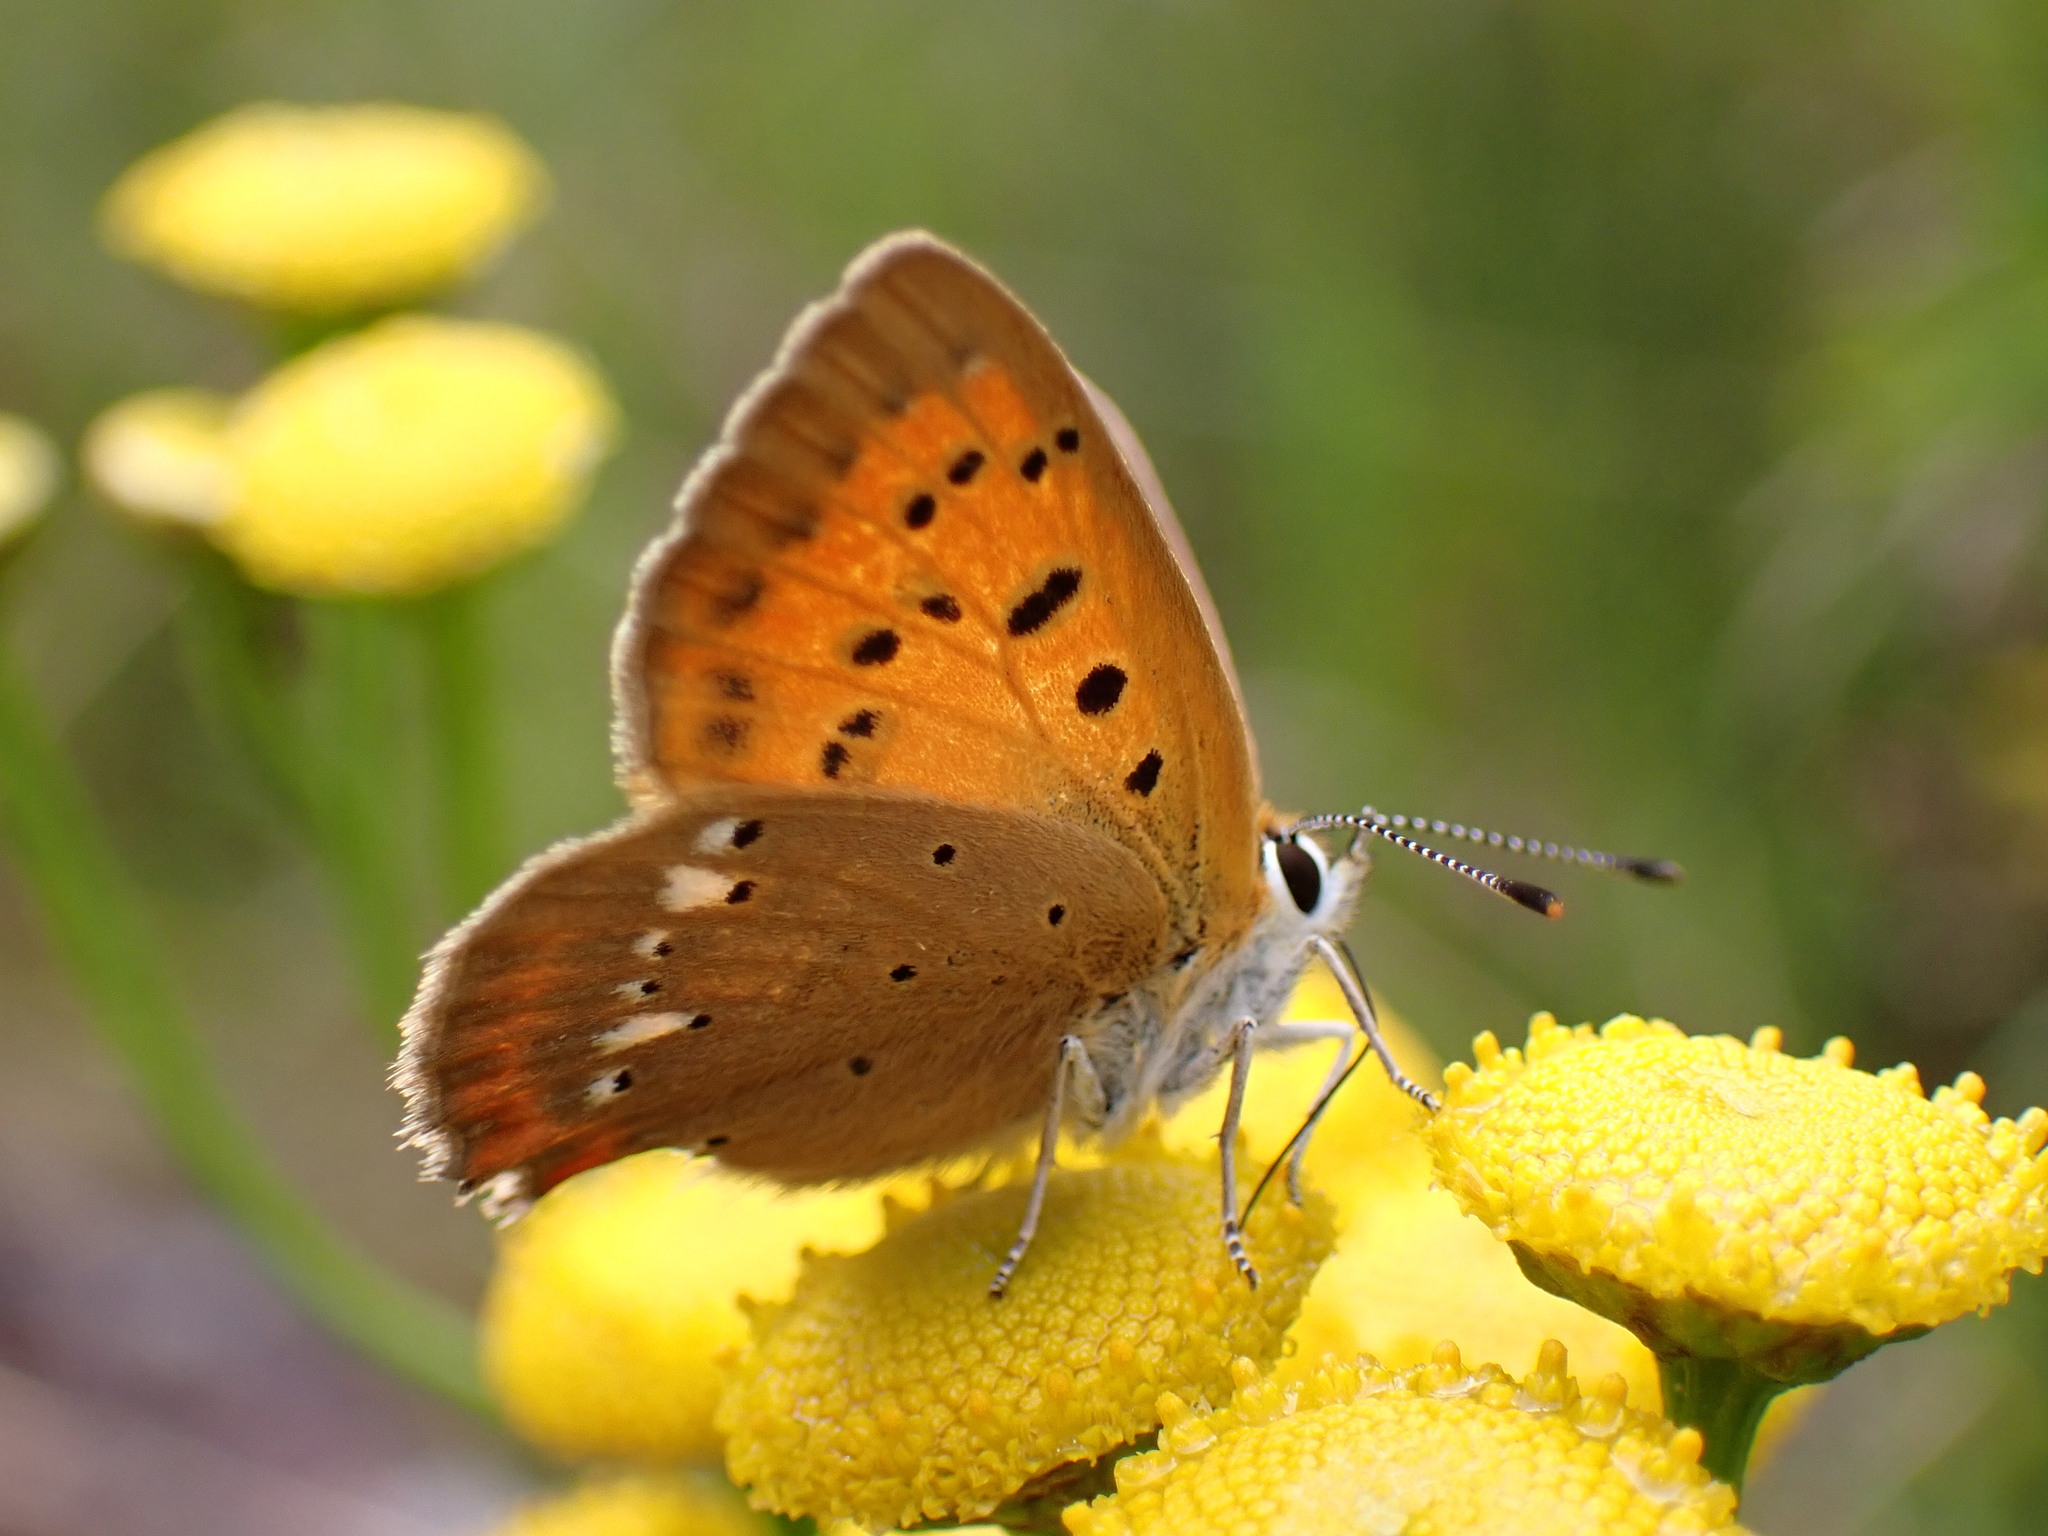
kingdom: Animalia
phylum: Arthropoda
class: Insecta
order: Lepidoptera
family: Lycaenidae
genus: Lycaena
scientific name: Lycaena virgaureae
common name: Scarce copper
